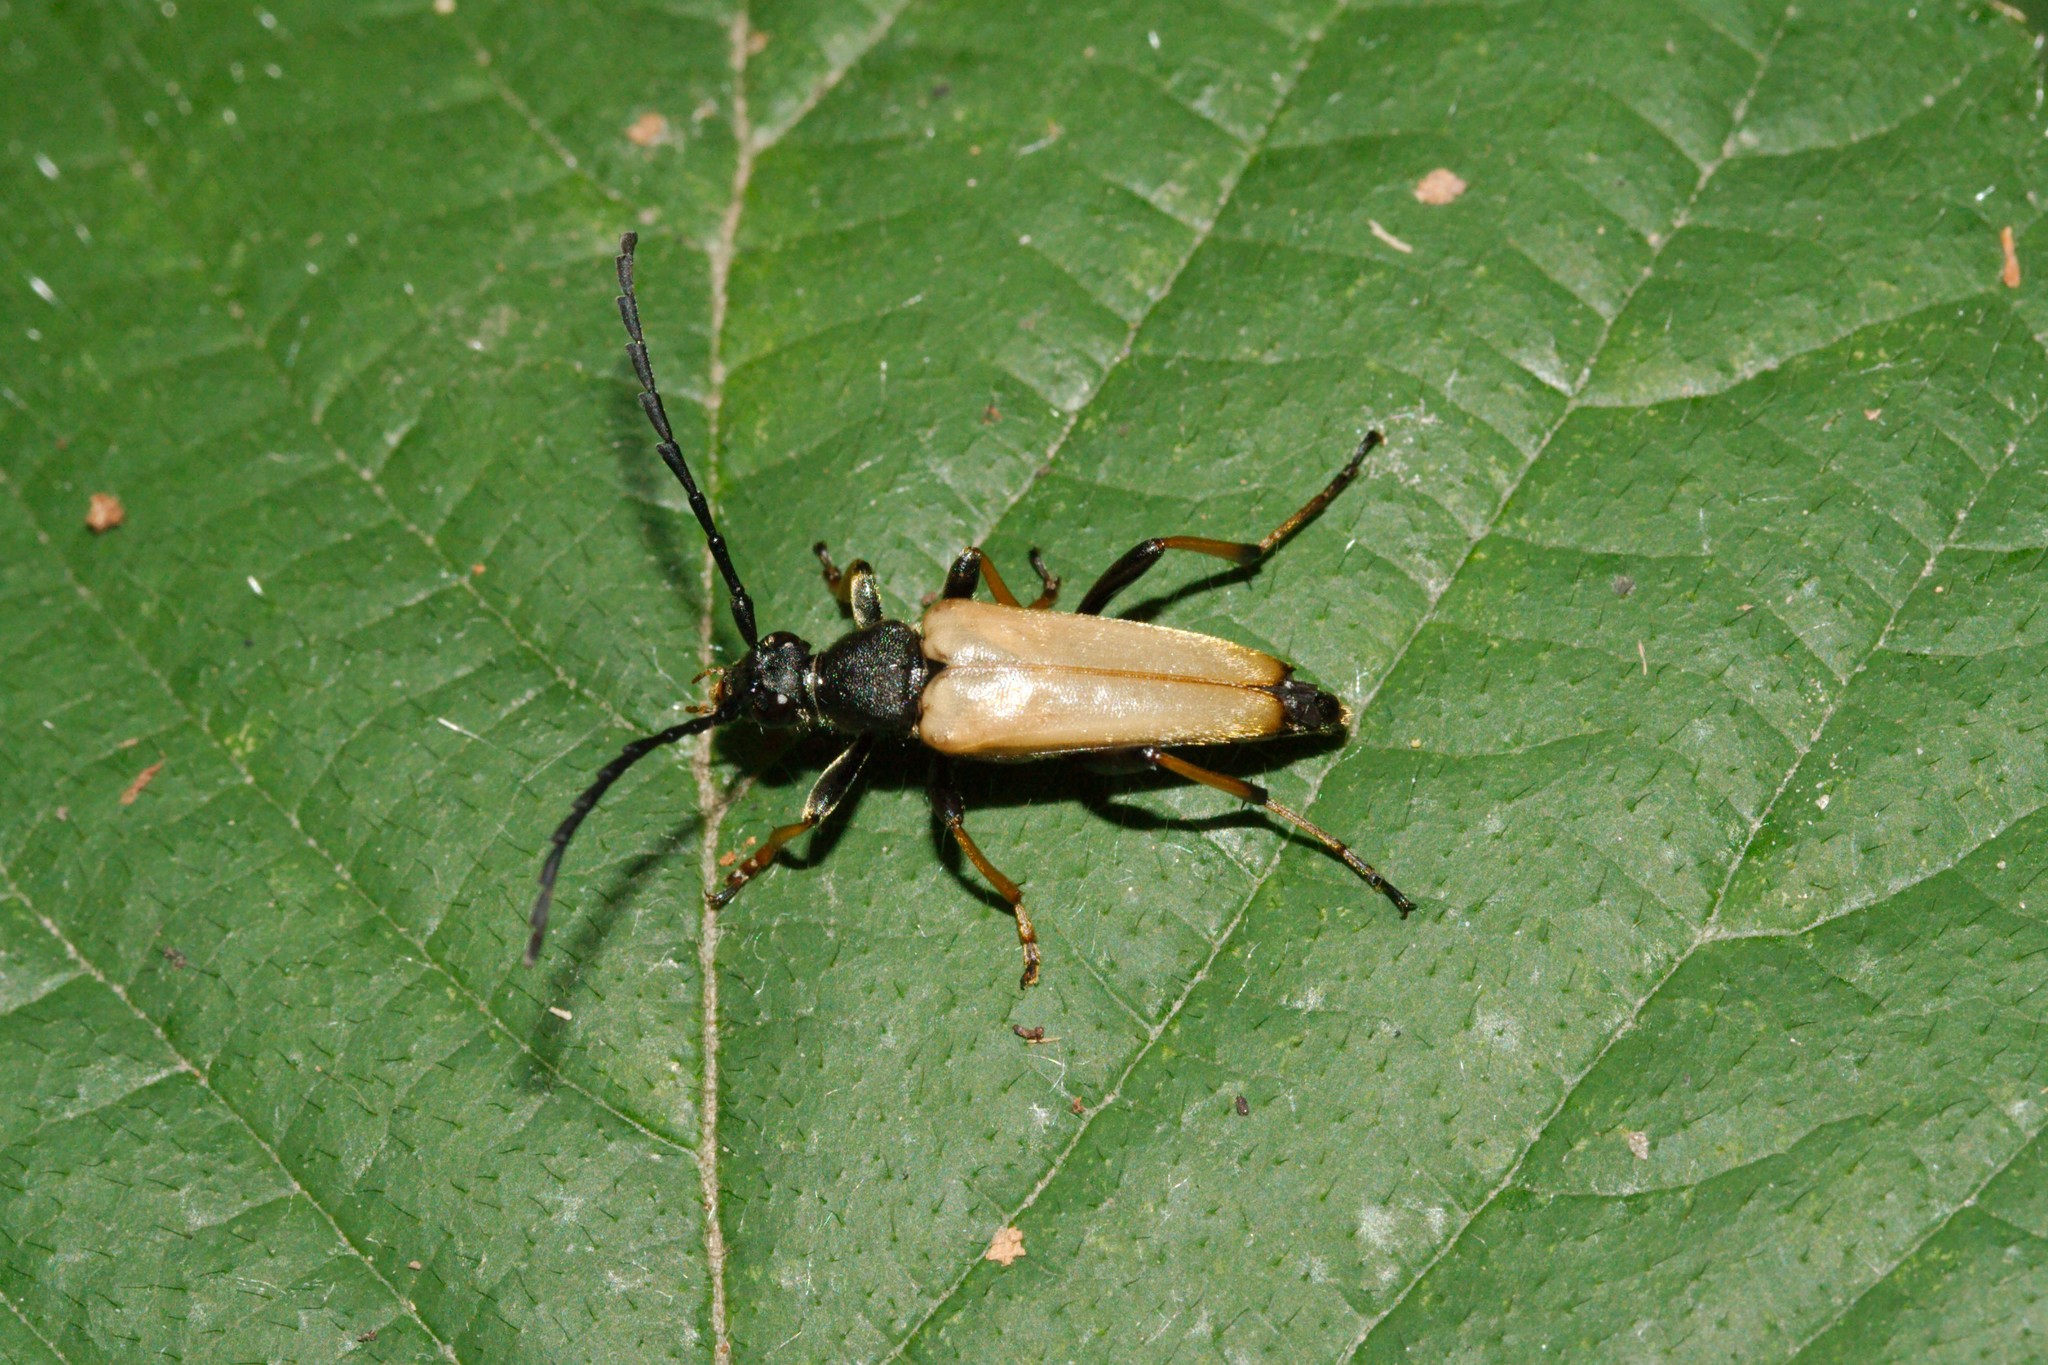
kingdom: Animalia
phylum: Arthropoda
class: Insecta
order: Coleoptera
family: Cerambycidae
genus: Stictoleptura
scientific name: Stictoleptura rubra
